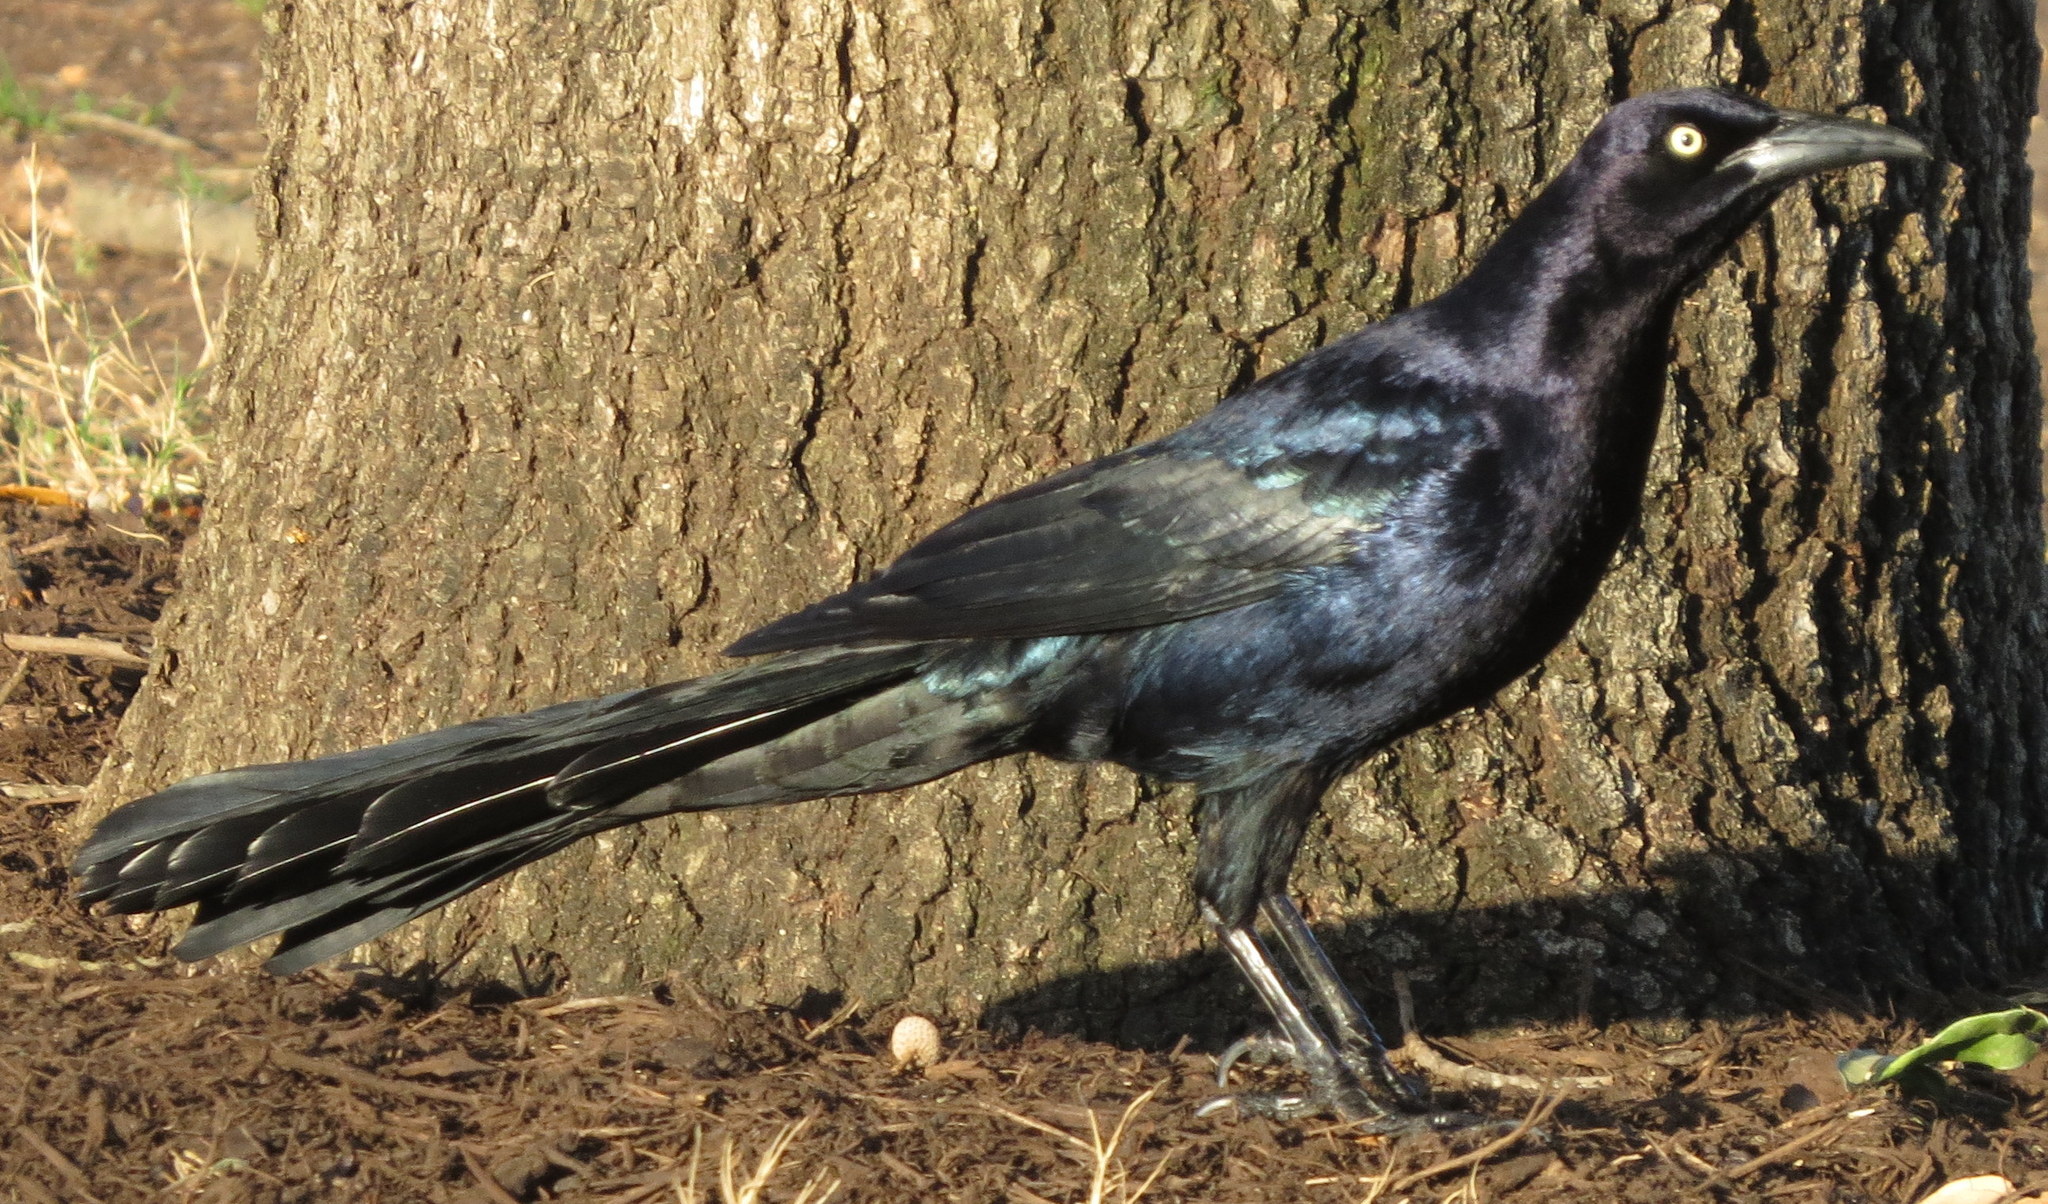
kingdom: Animalia
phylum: Chordata
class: Aves
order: Passeriformes
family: Icteridae
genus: Quiscalus
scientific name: Quiscalus mexicanus
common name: Great-tailed grackle
